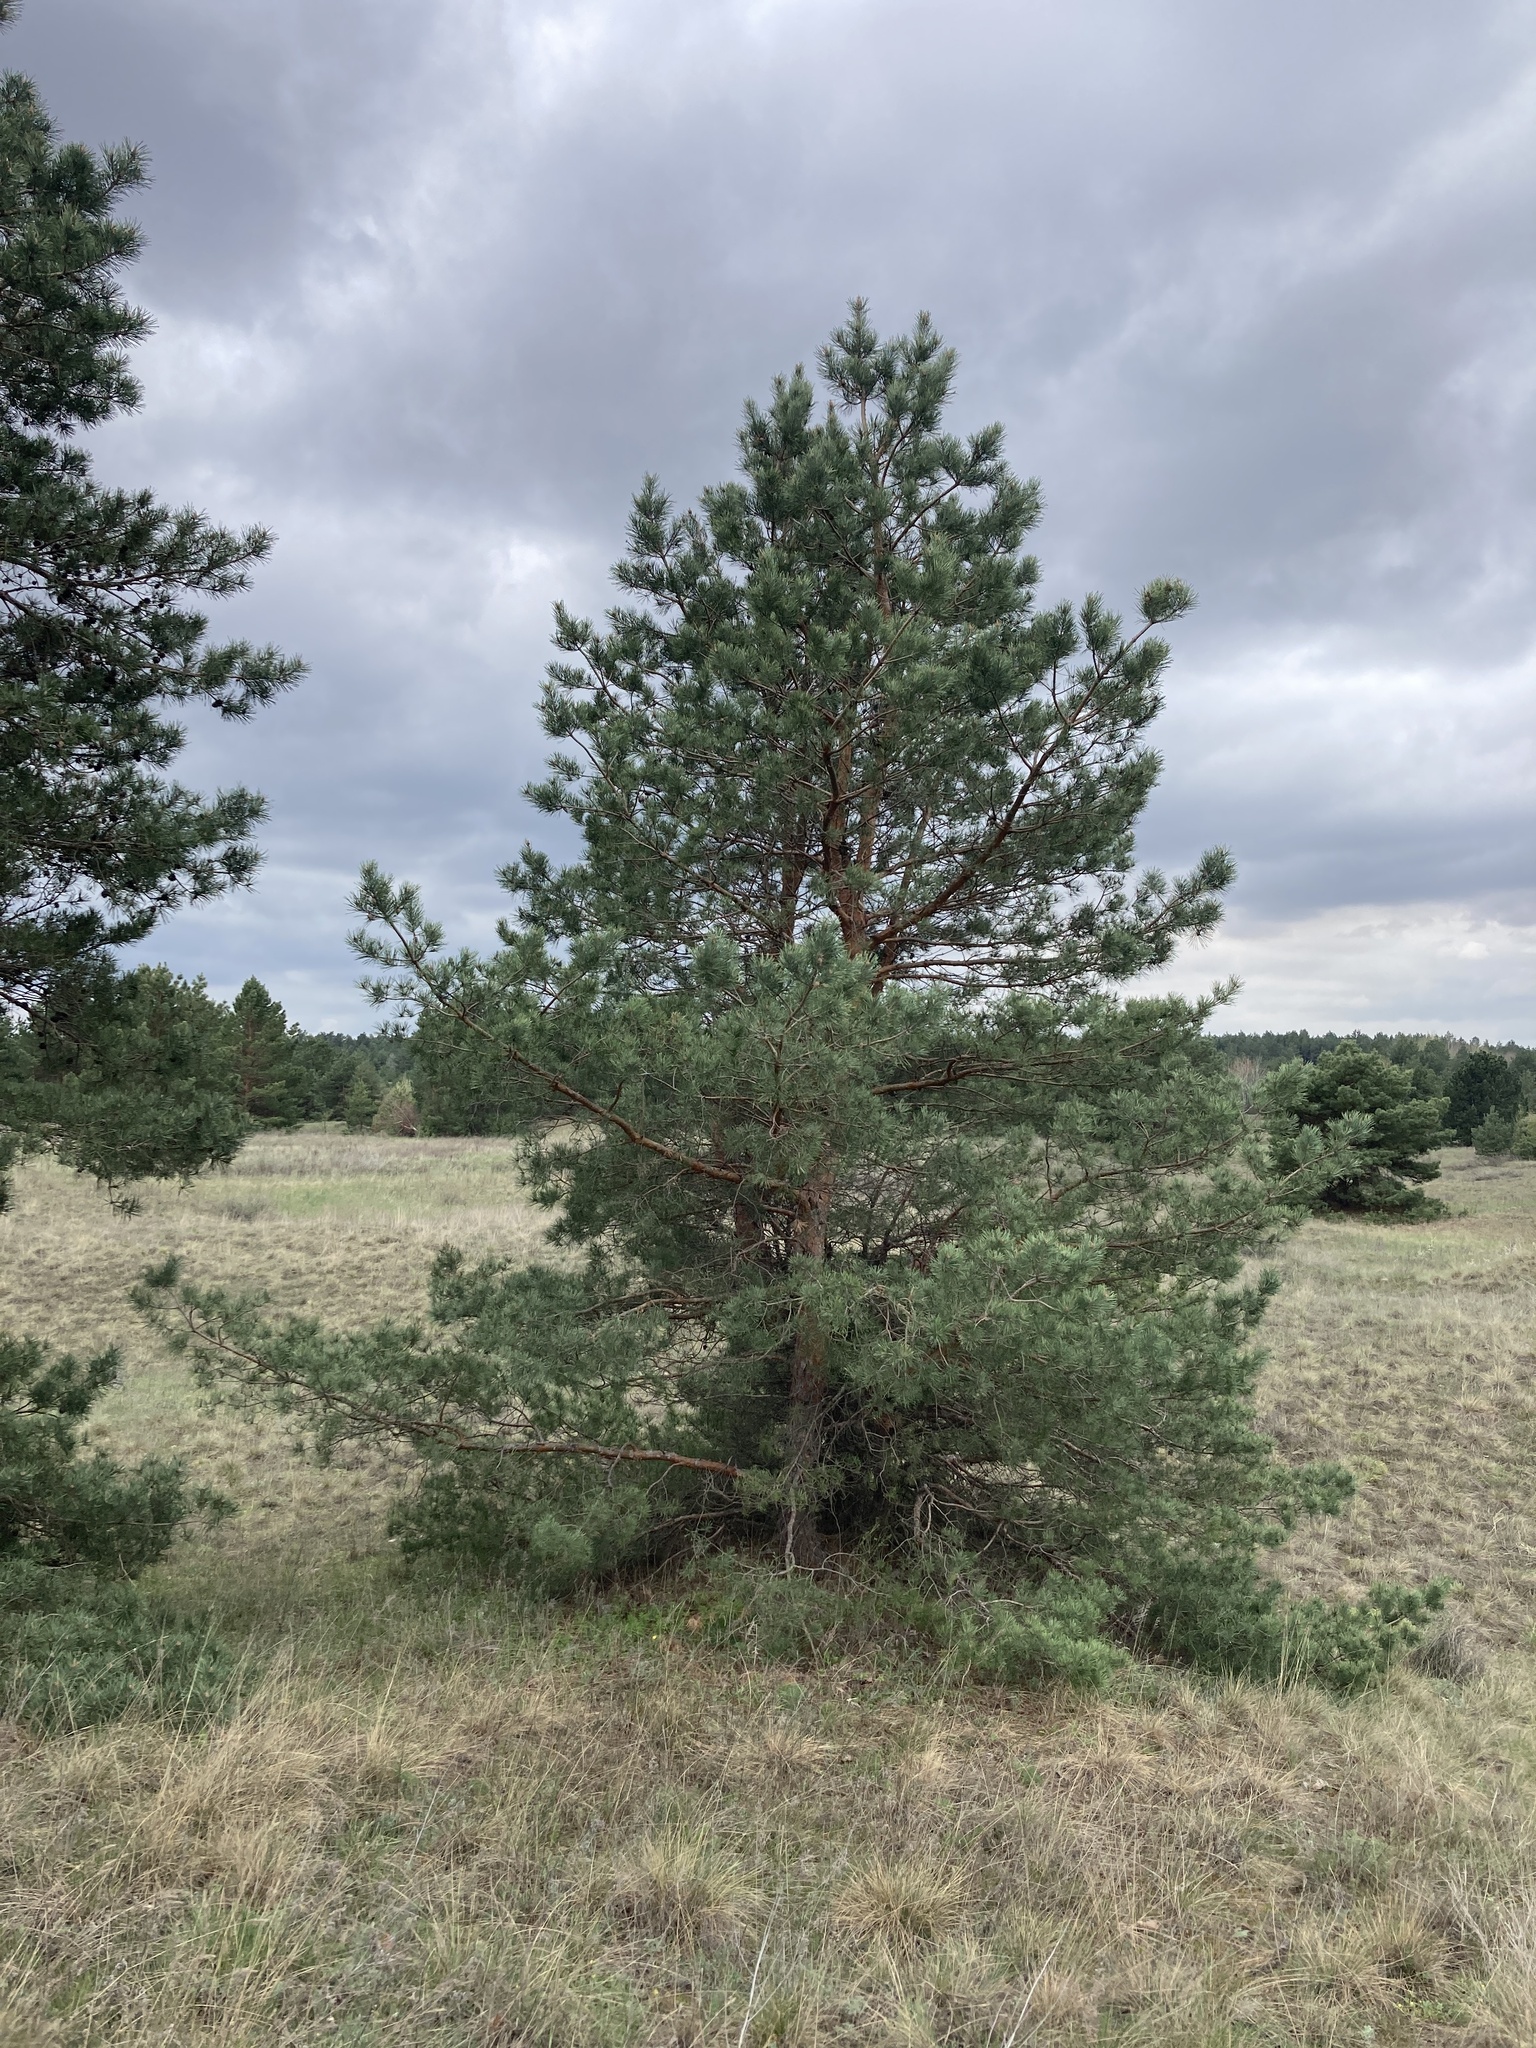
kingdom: Plantae
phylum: Tracheophyta
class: Pinopsida
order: Pinales
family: Pinaceae
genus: Pinus
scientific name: Pinus sylvestris
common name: Scots pine
